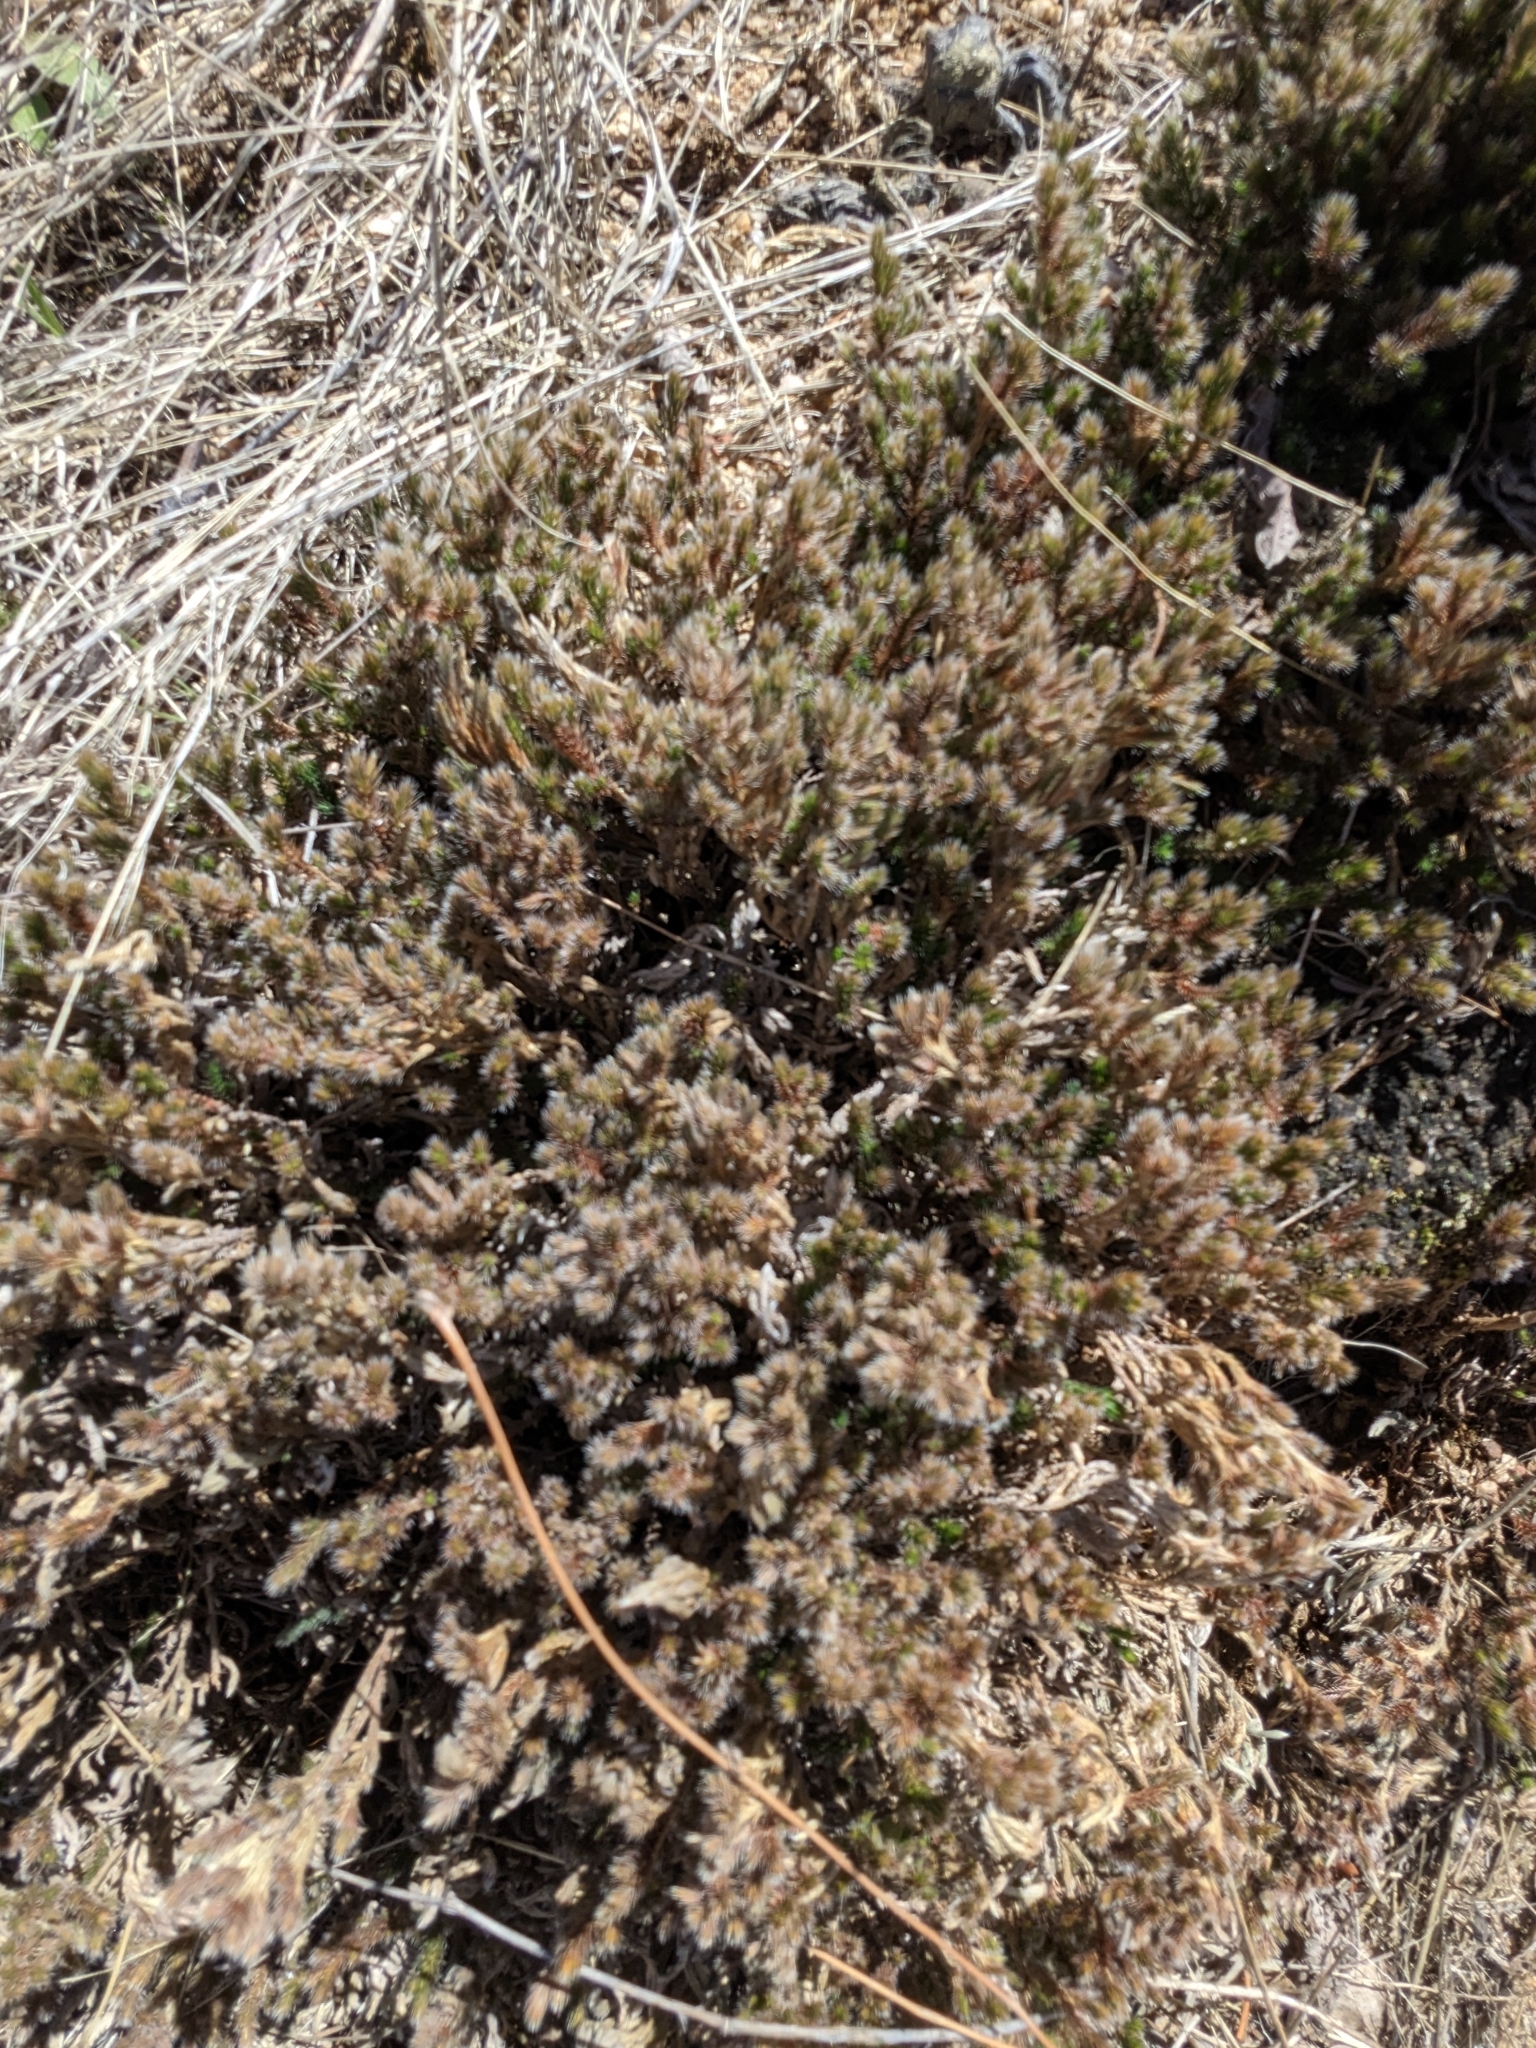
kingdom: Plantae
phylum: Tracheophyta
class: Lycopodiopsida
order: Selaginellales
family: Selaginellaceae
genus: Selaginella
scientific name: Selaginella rupincola
